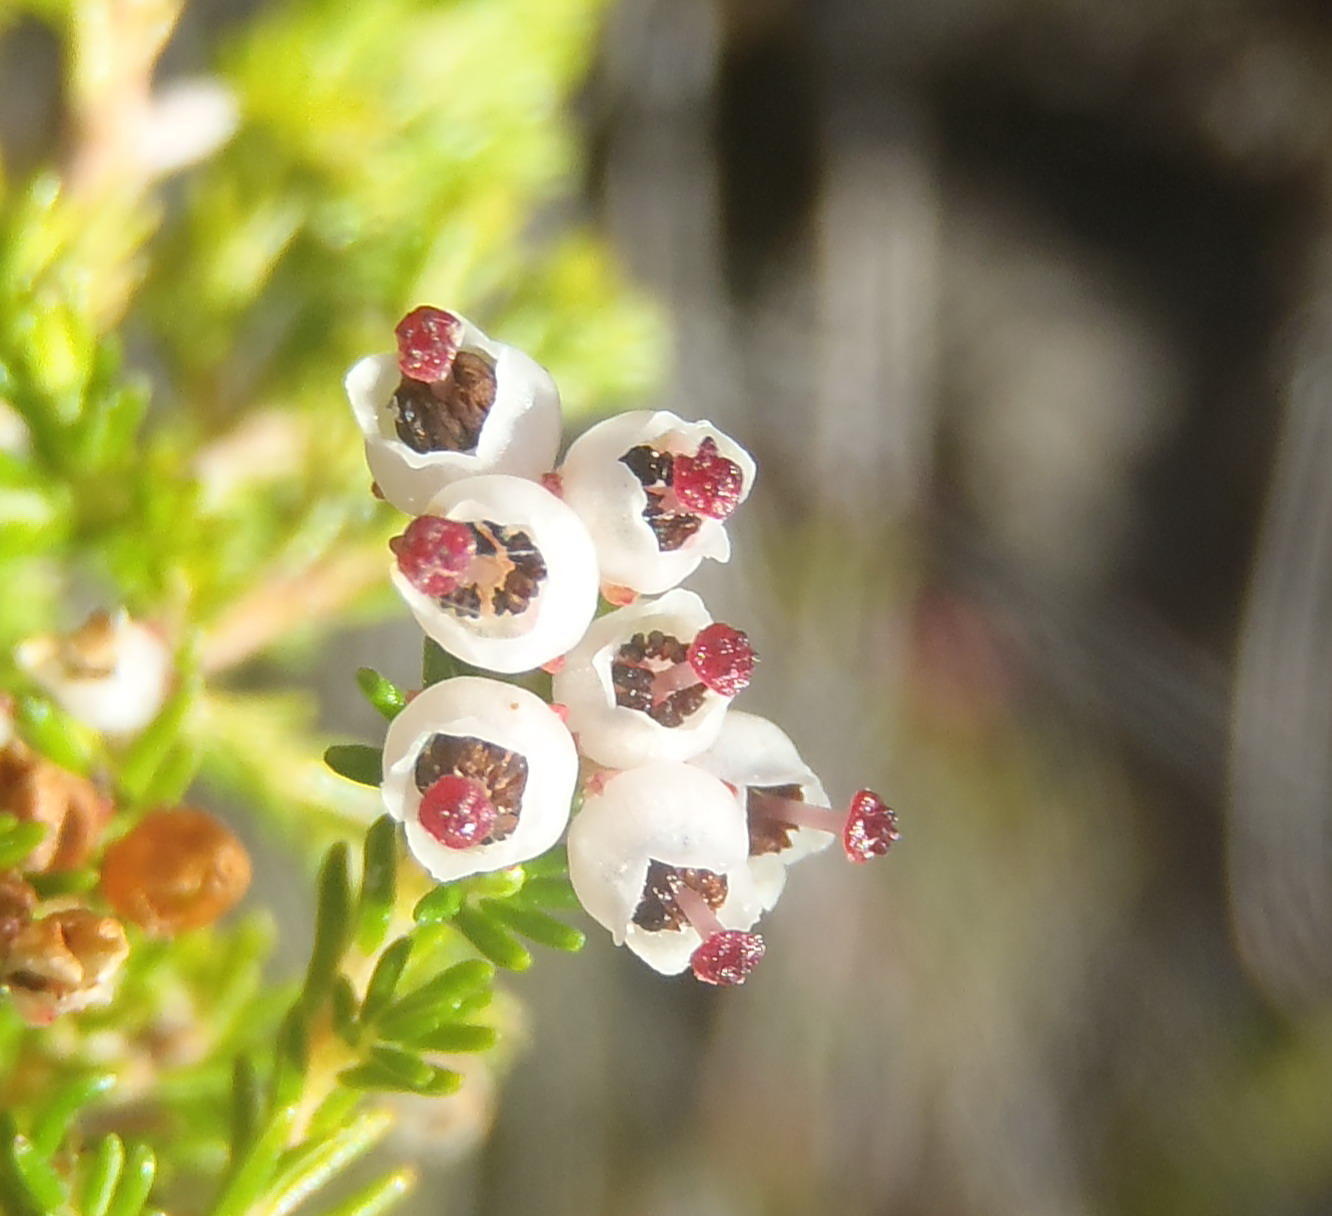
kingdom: Plantae
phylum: Tracheophyta
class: Magnoliopsida
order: Ericales
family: Ericaceae
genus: Erica
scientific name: Erica inconstans
